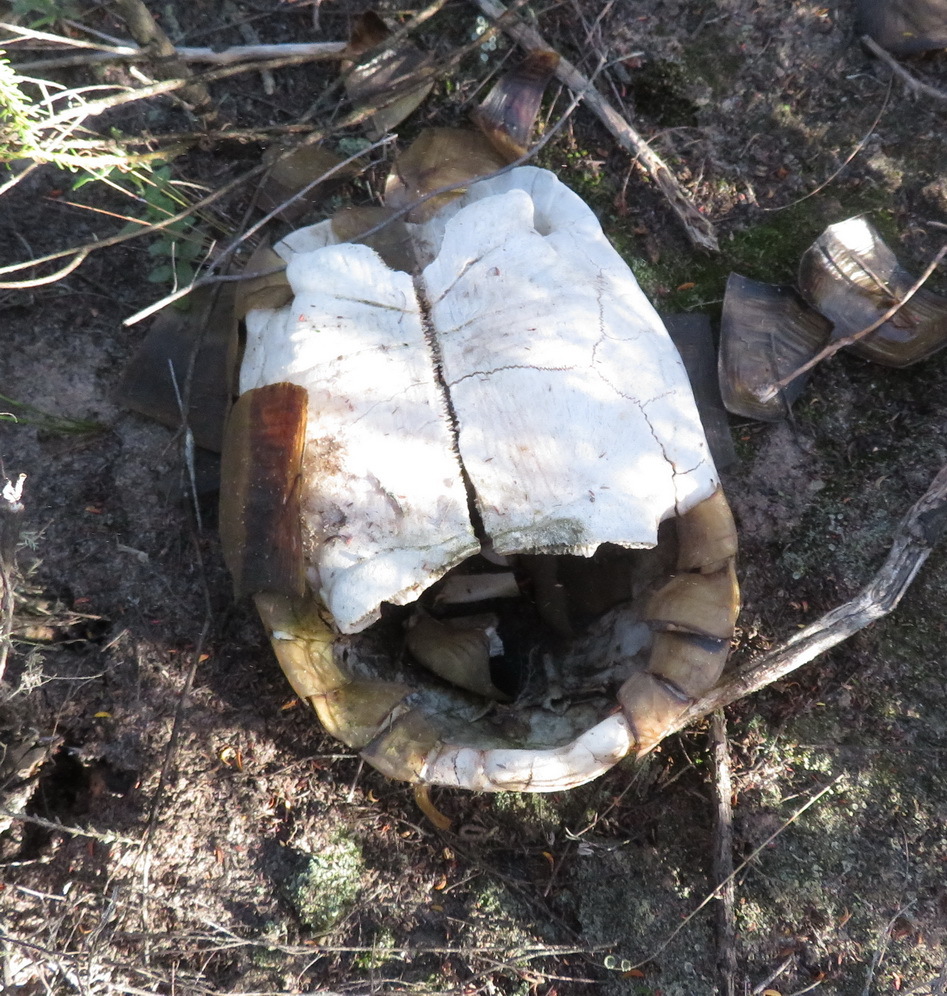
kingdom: Animalia
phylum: Chordata
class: Testudines
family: Testudinidae
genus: Chersina
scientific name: Chersina angulata
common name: South african bowsprit tortoise
